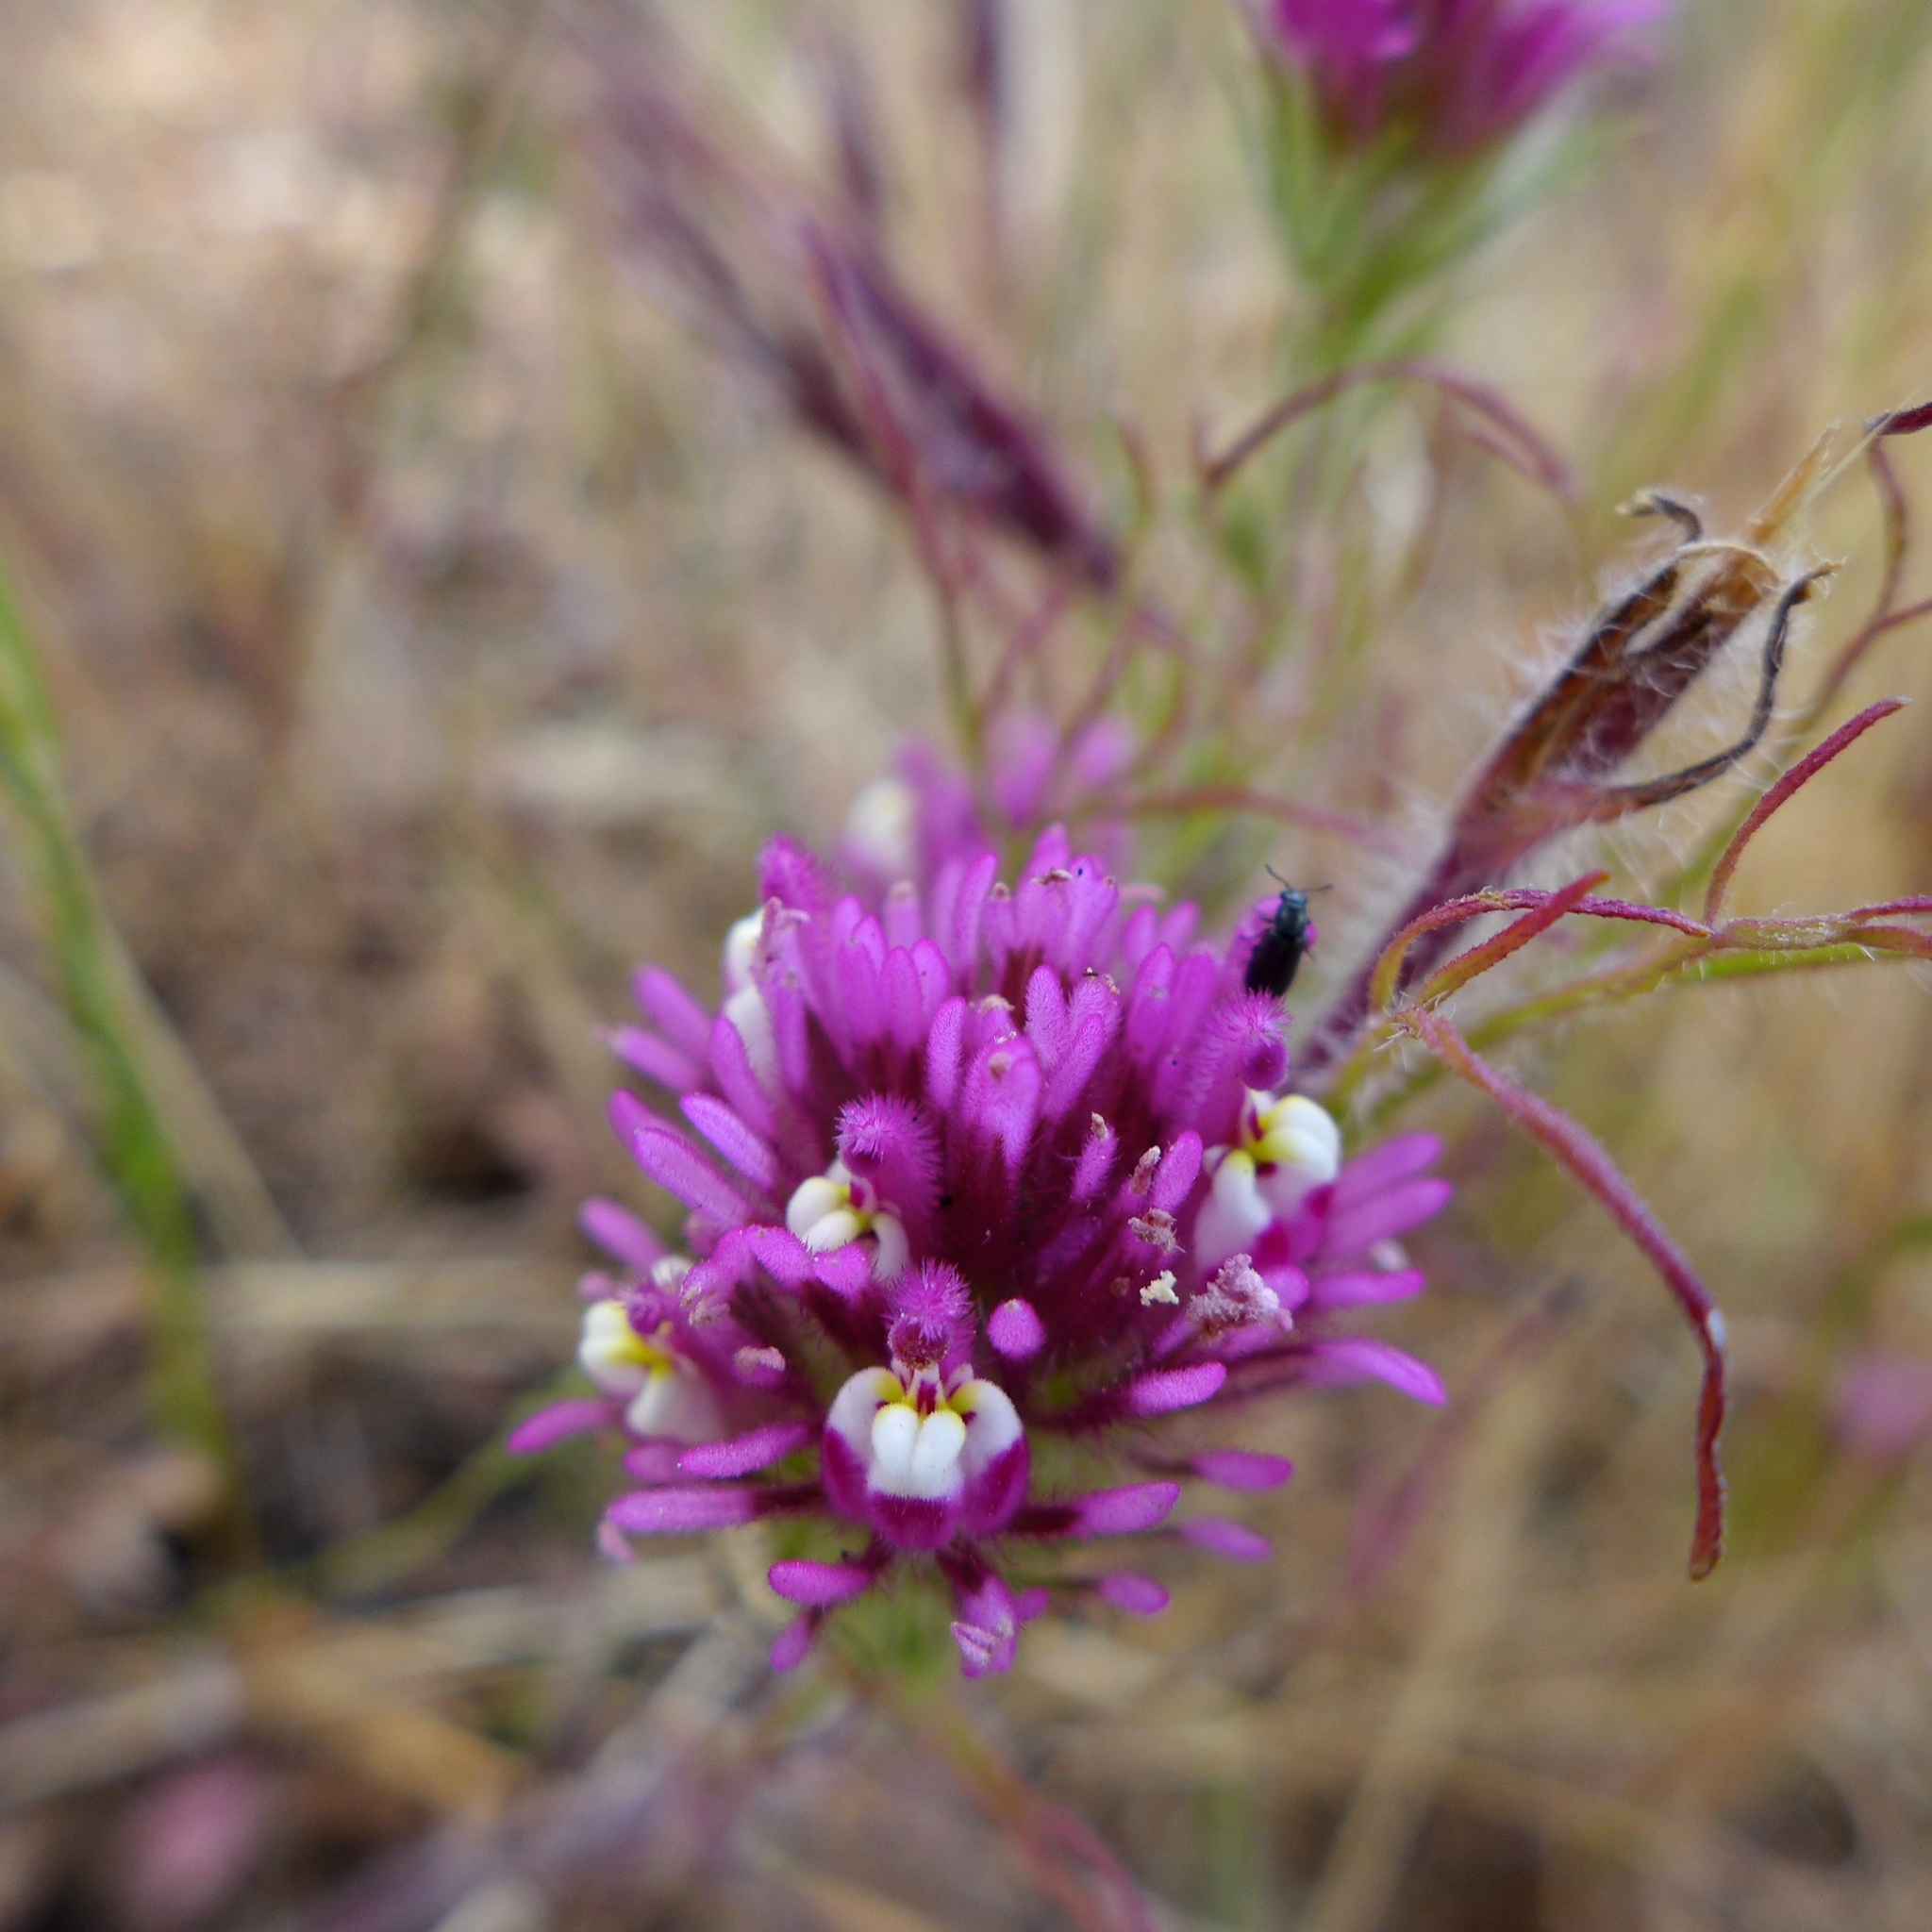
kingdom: Plantae
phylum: Tracheophyta
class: Magnoliopsida
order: Lamiales
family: Orobanchaceae
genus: Castilleja
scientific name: Castilleja exserta
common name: Purple owl-clover
